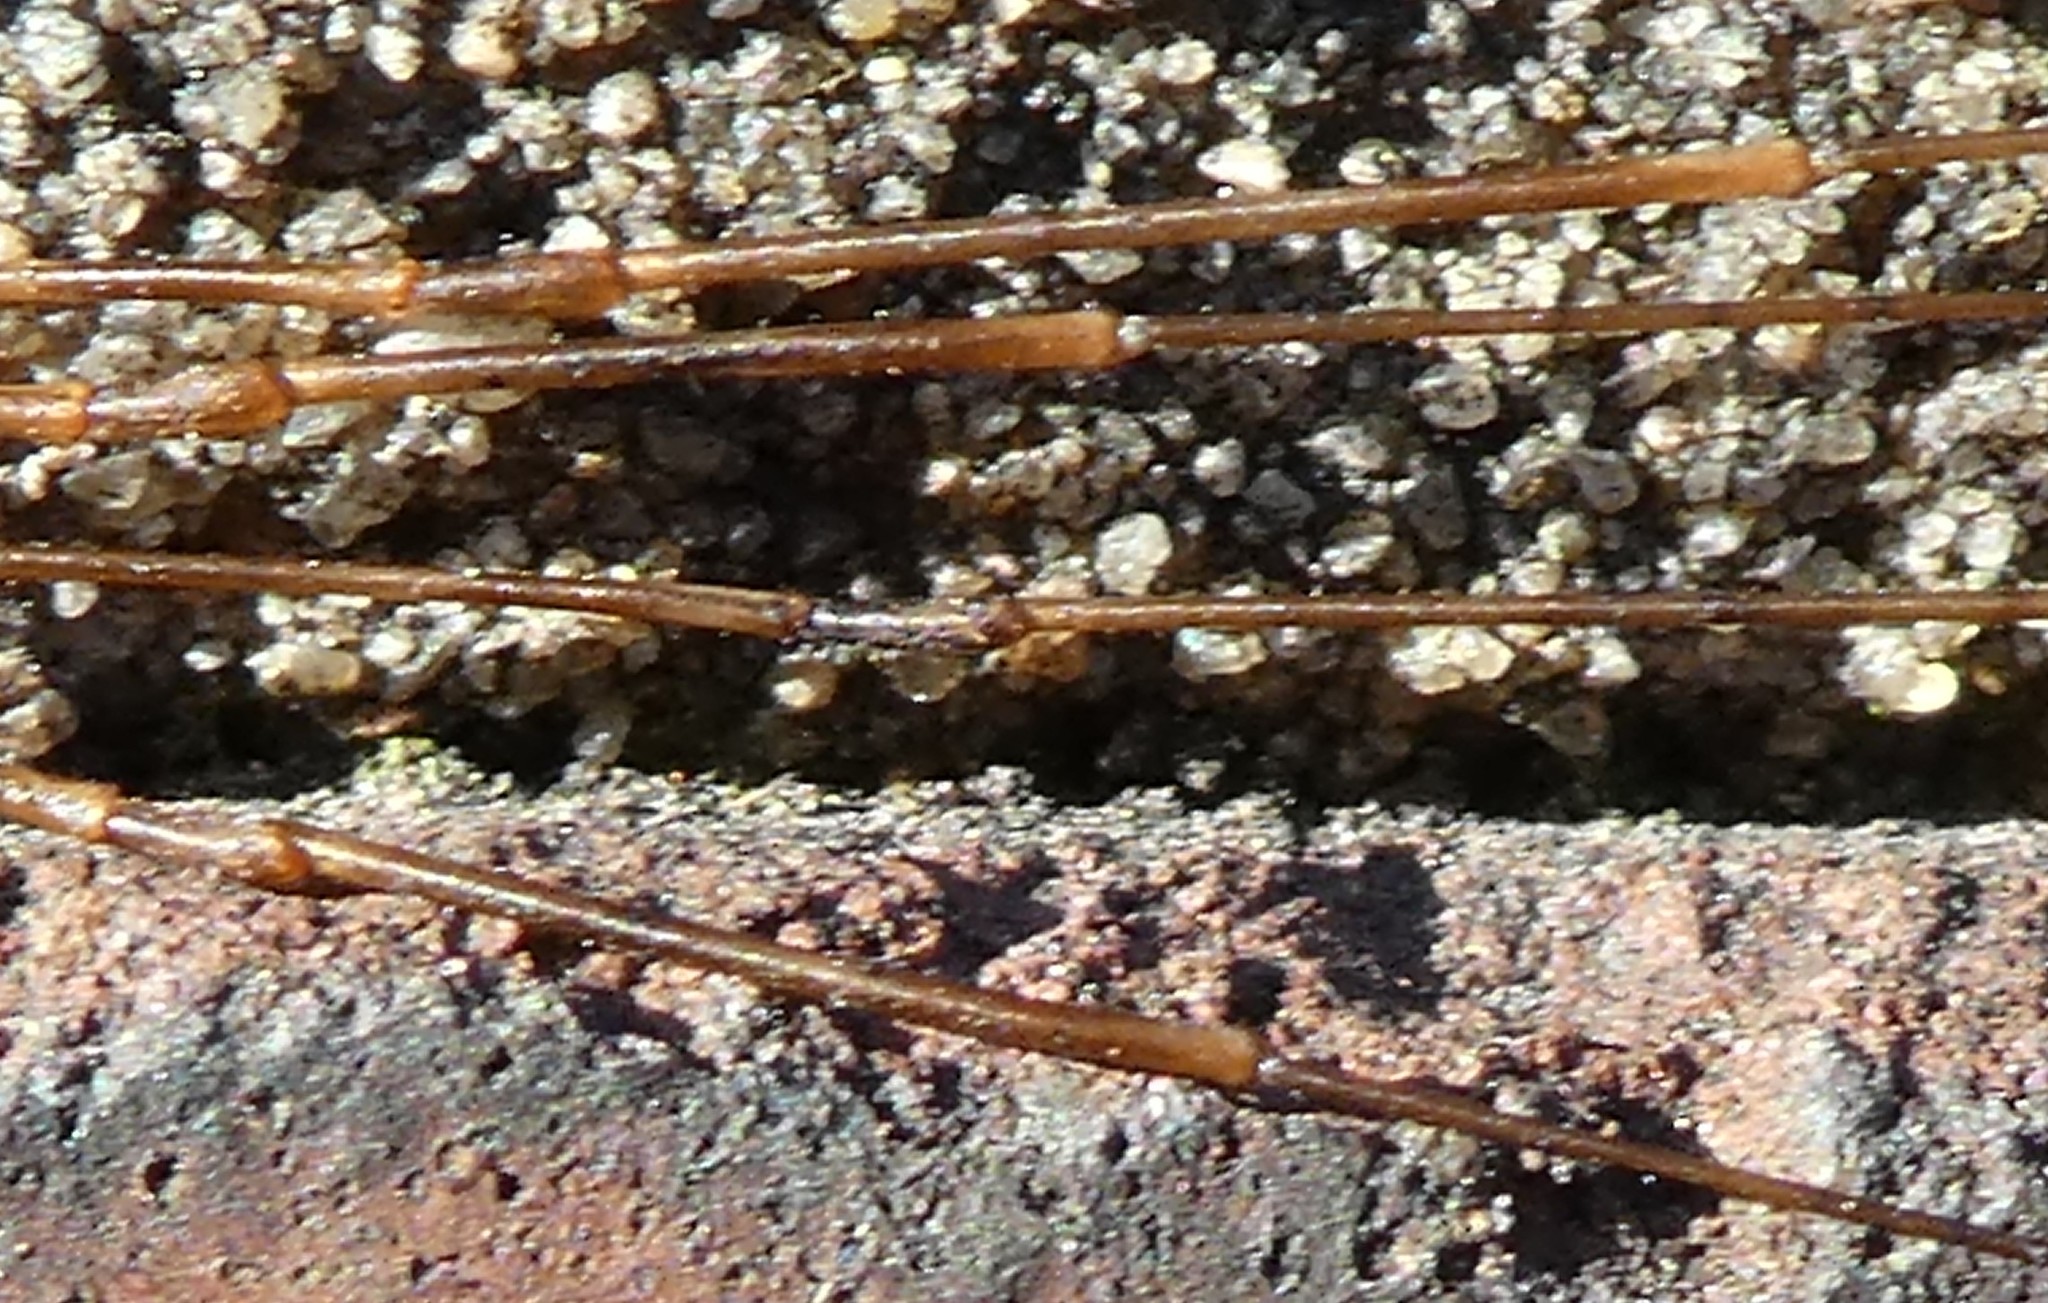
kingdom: Animalia
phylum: Arthropoda
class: Arachnida
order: Opiliones
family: Phalangiidae
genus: Dicranopalpus
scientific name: Dicranopalpus ramosus
